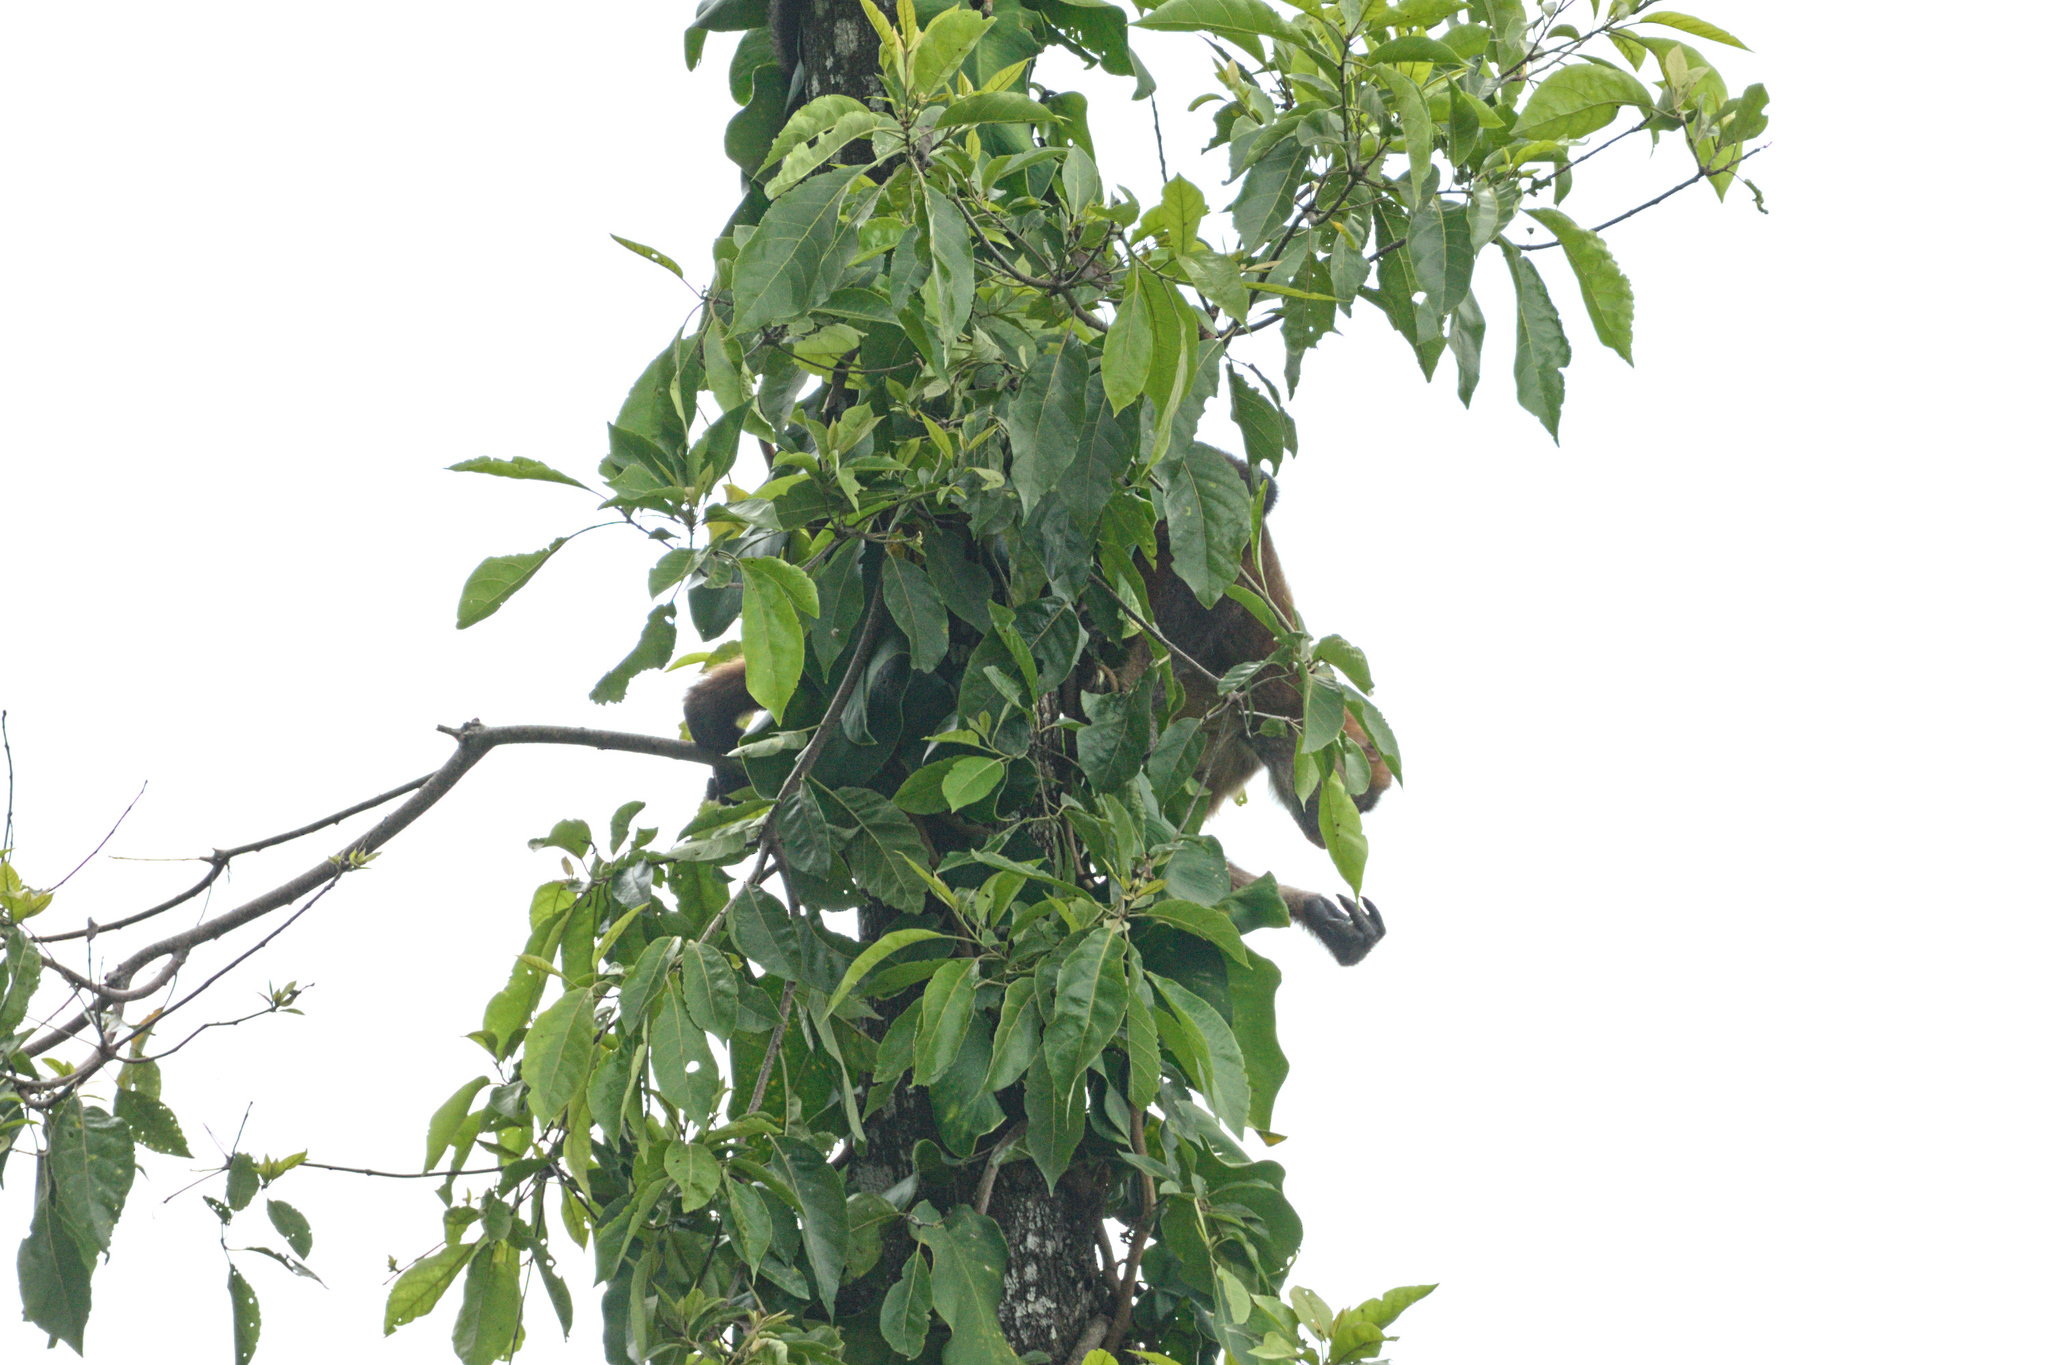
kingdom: Animalia
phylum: Chordata
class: Mammalia
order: Primates
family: Atelidae
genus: Ateles
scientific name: Ateles geoffroyi
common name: Black-handed spider monkey
